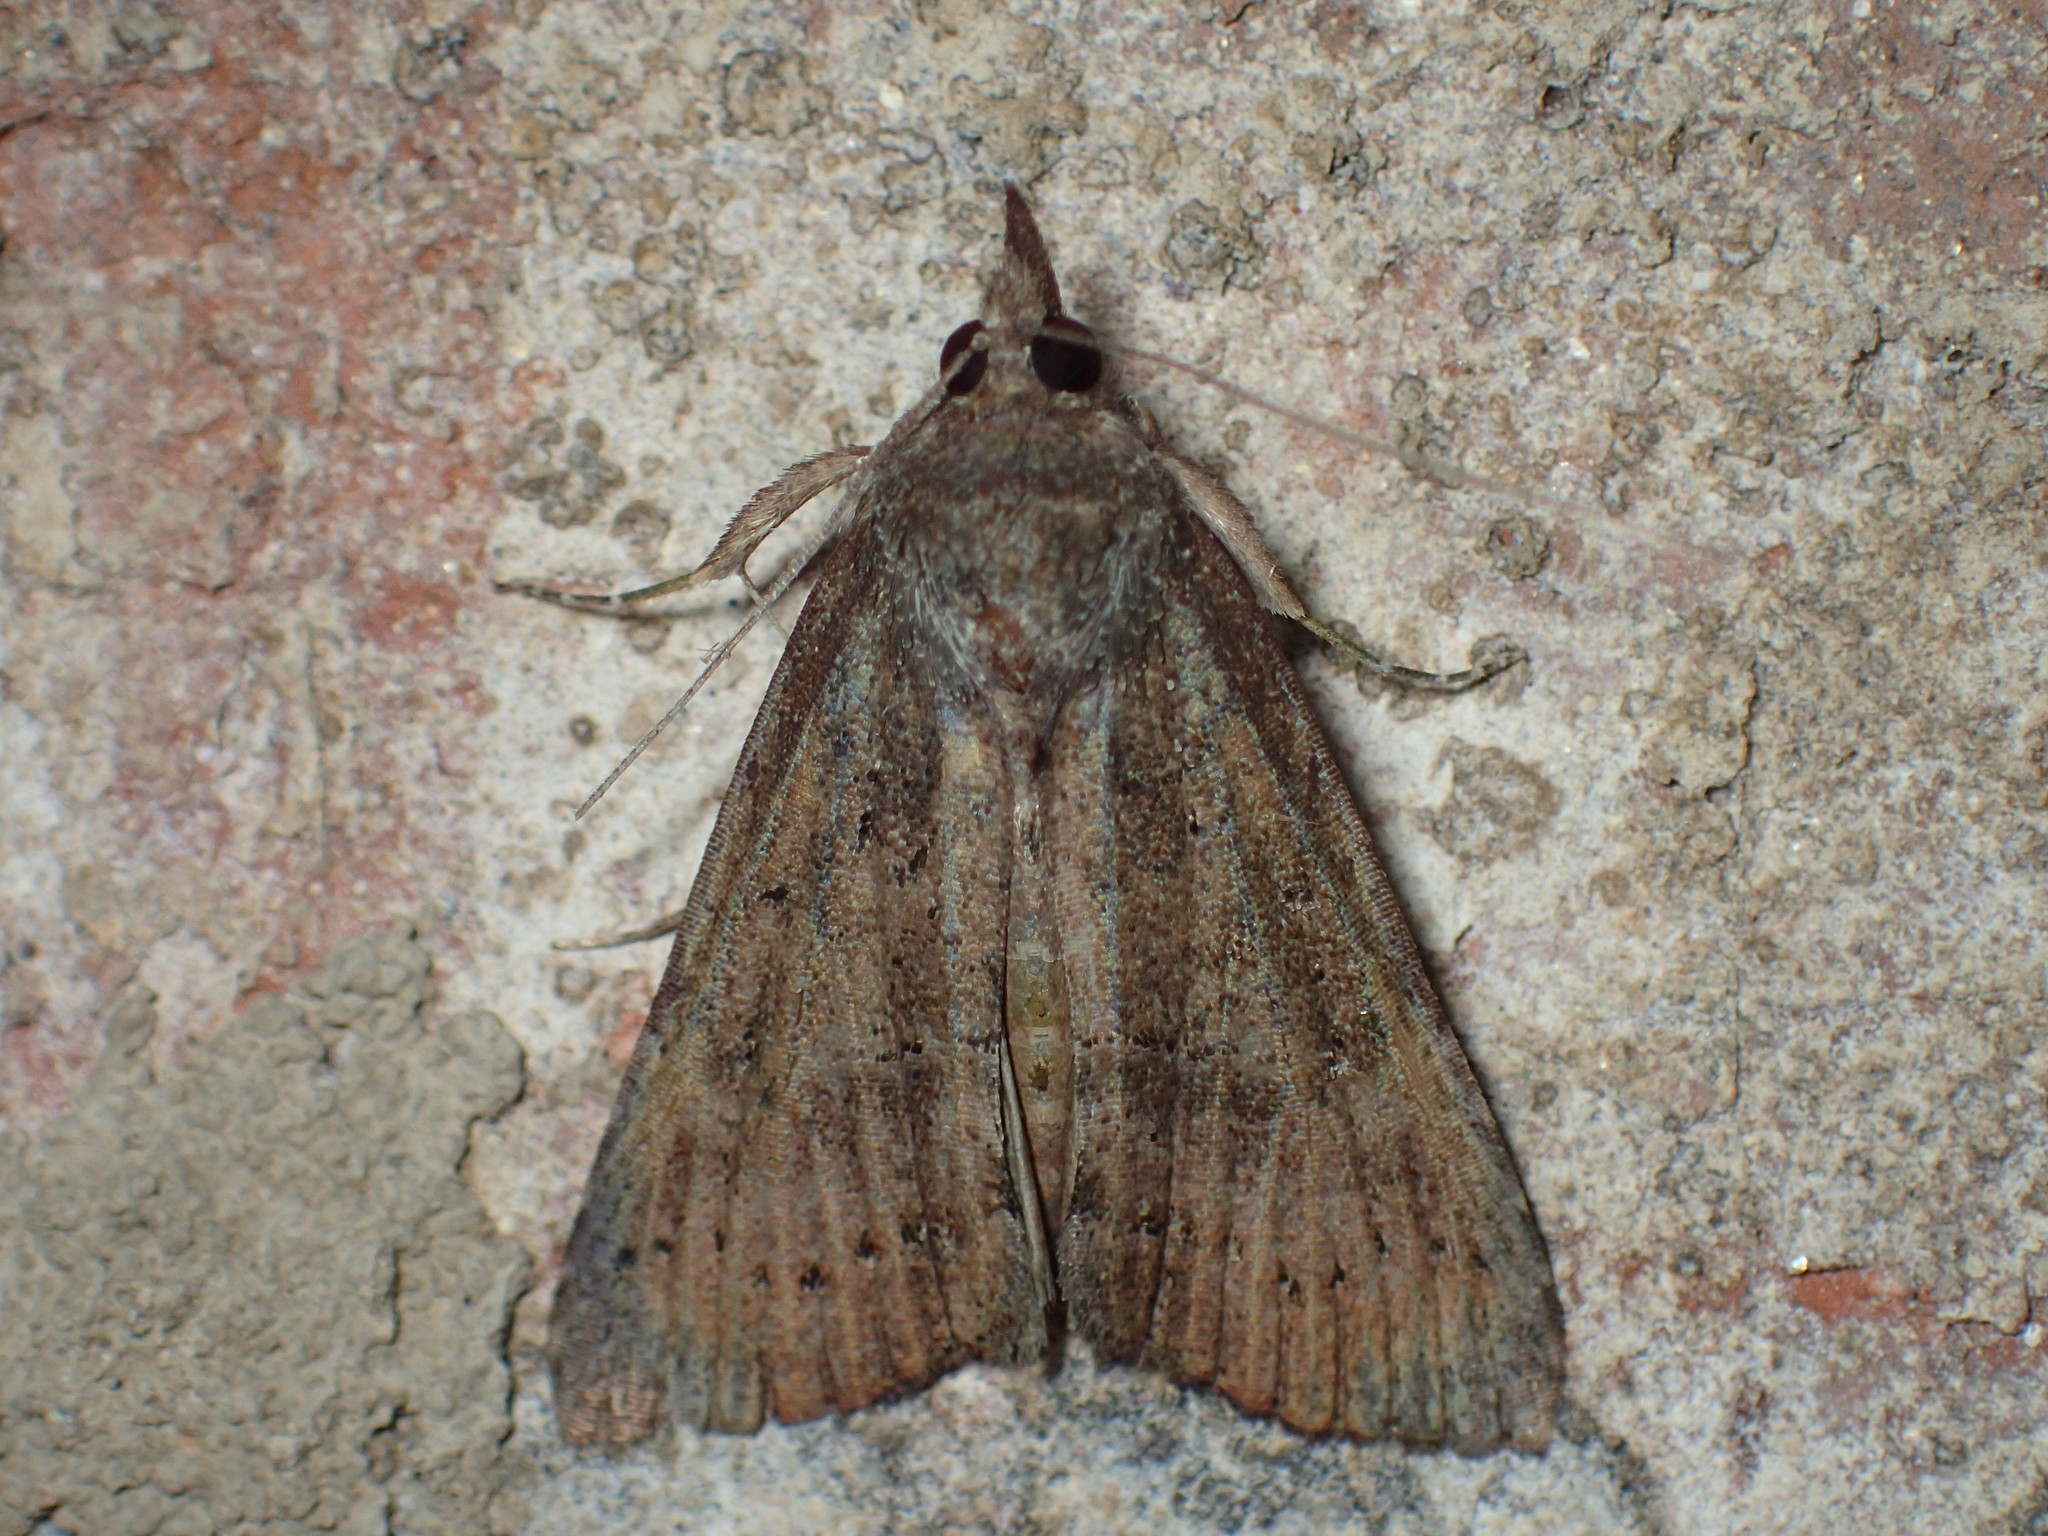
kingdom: Animalia
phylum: Arthropoda
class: Insecta
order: Lepidoptera
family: Erebidae
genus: Hypena
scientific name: Hypena scabra
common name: Green cloverworm
